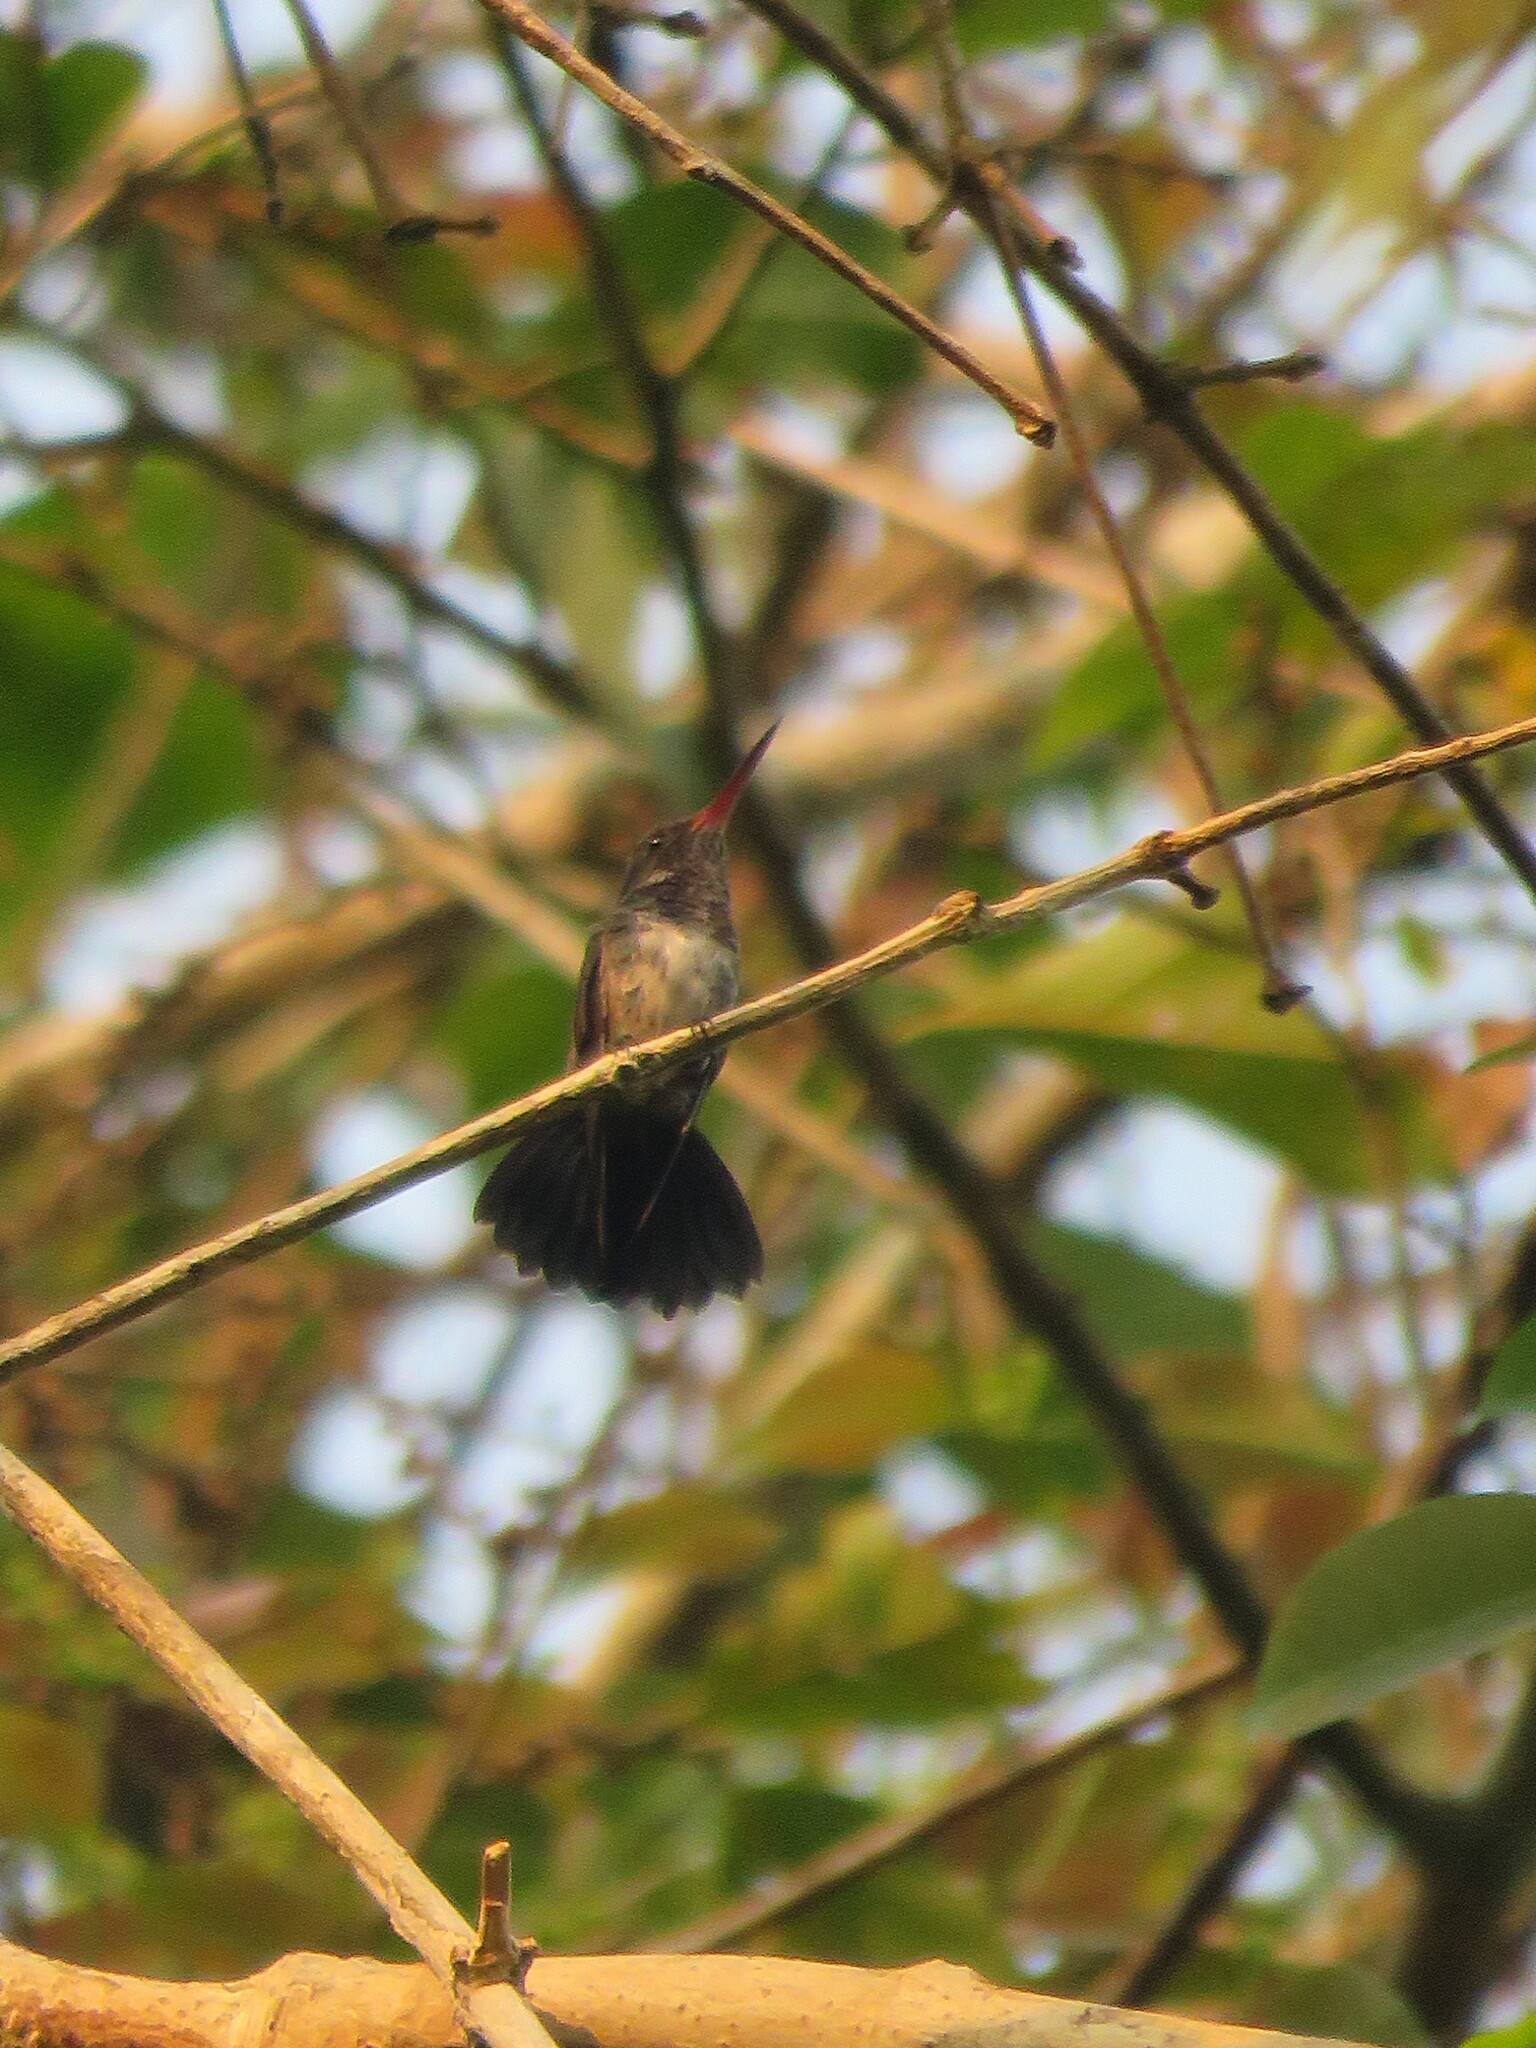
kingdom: Animalia
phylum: Chordata
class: Aves
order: Apodiformes
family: Trochilidae
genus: Hylocharis
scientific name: Hylocharis chrysura
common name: Gilded sapphire
